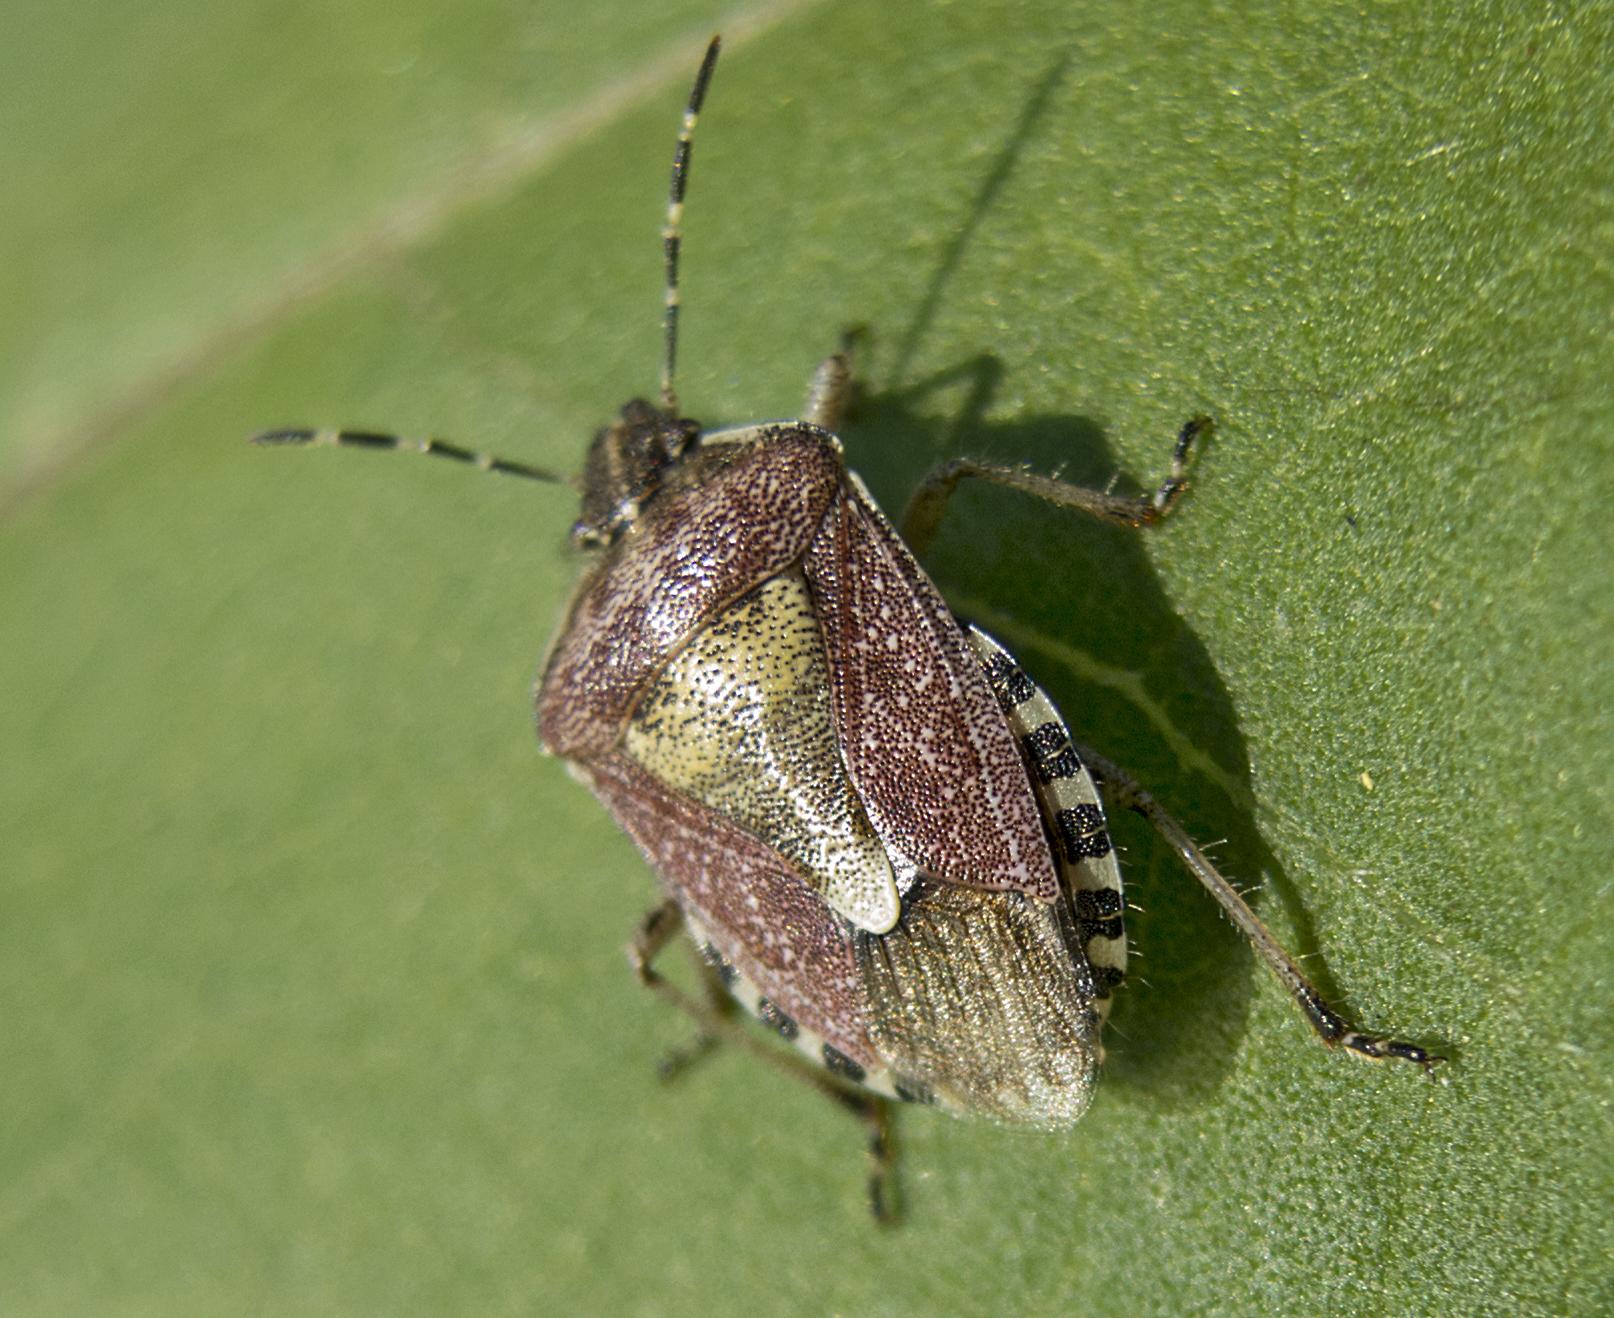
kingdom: Animalia
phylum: Arthropoda
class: Insecta
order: Hemiptera
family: Pentatomidae
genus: Dolycoris
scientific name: Dolycoris baccarum
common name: Sloe bug
